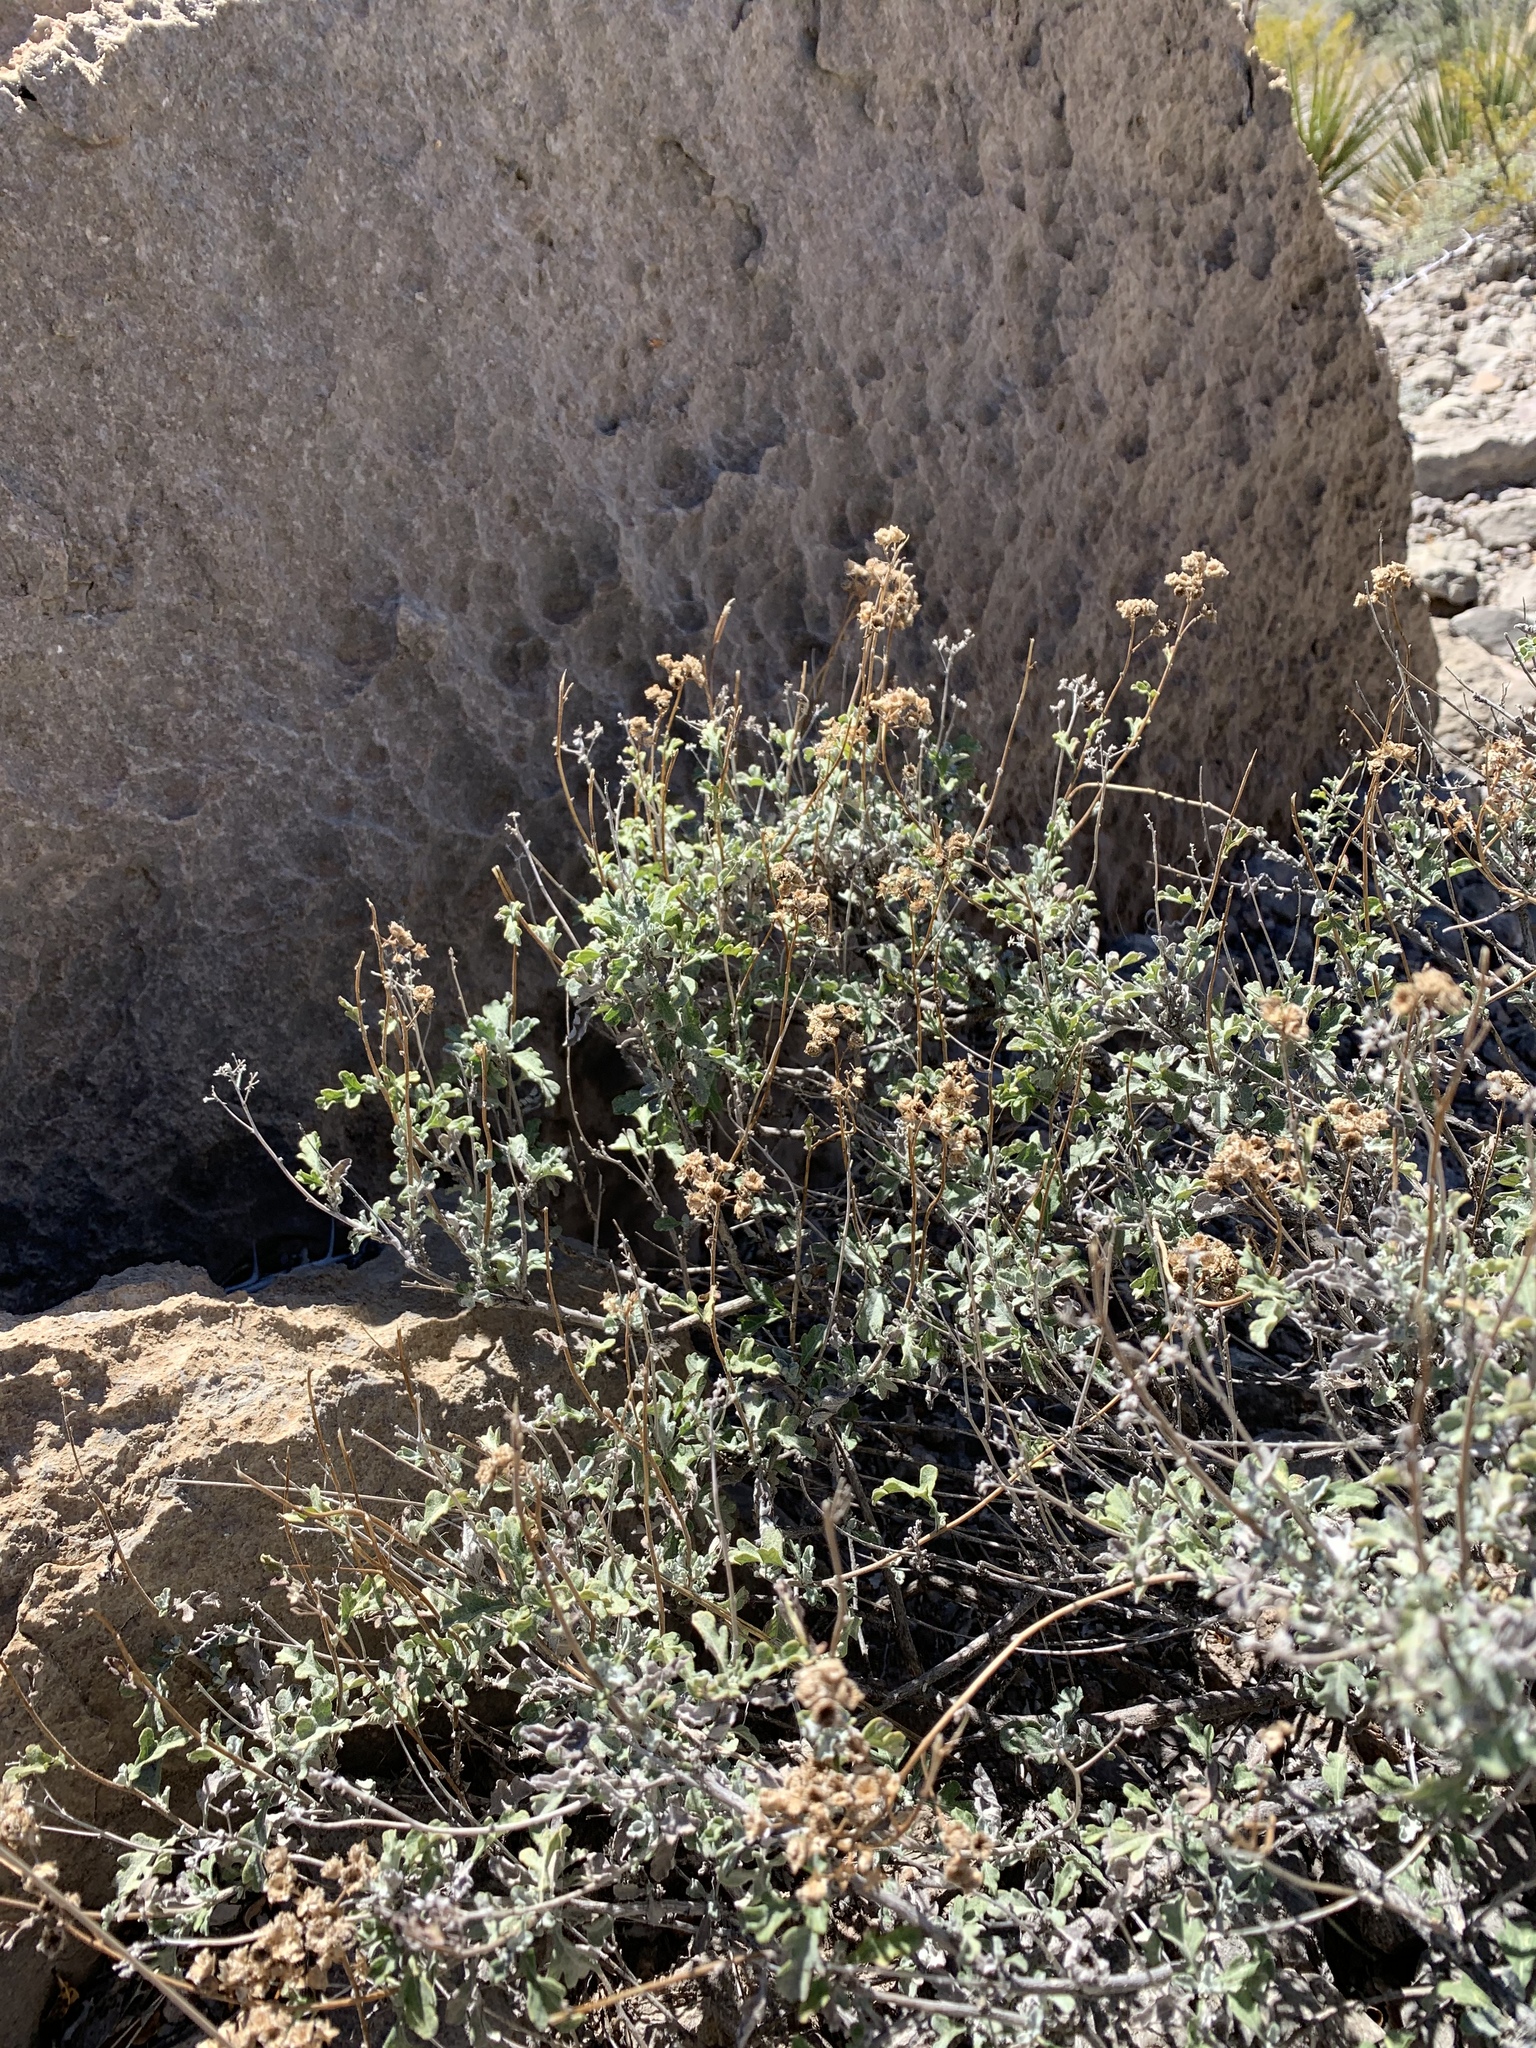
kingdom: Plantae
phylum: Tracheophyta
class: Magnoliopsida
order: Asterales
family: Asteraceae
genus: Parthenium
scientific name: Parthenium incanum
